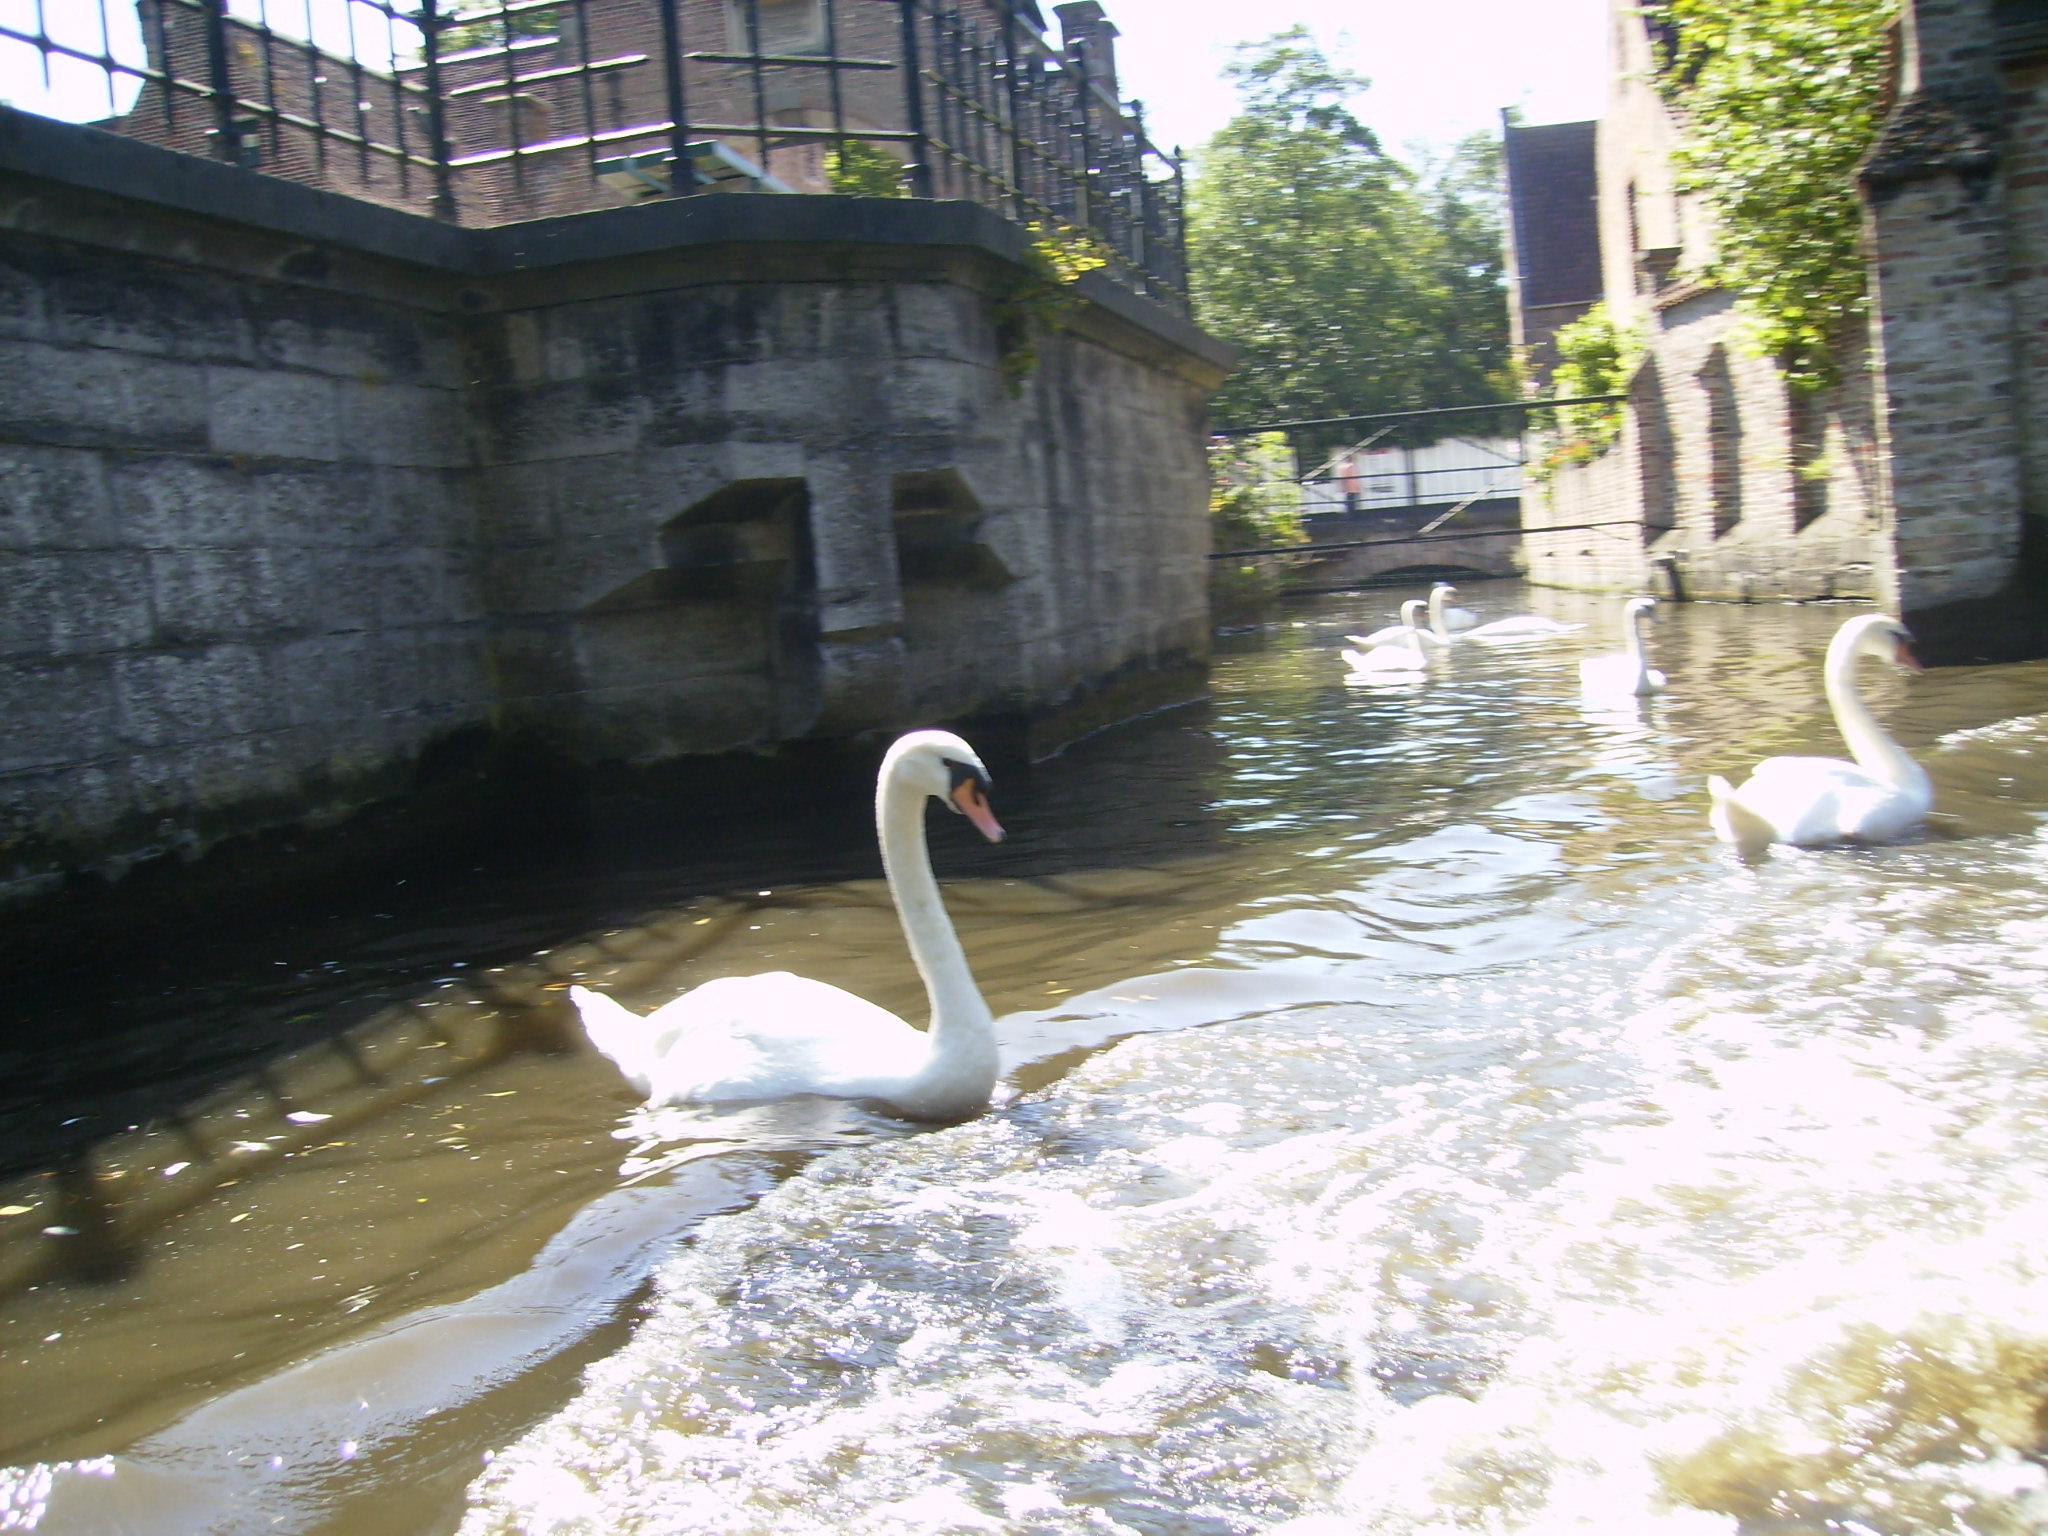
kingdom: Animalia
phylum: Chordata
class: Aves
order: Anseriformes
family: Anatidae
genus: Cygnus
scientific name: Cygnus olor
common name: Mute swan
